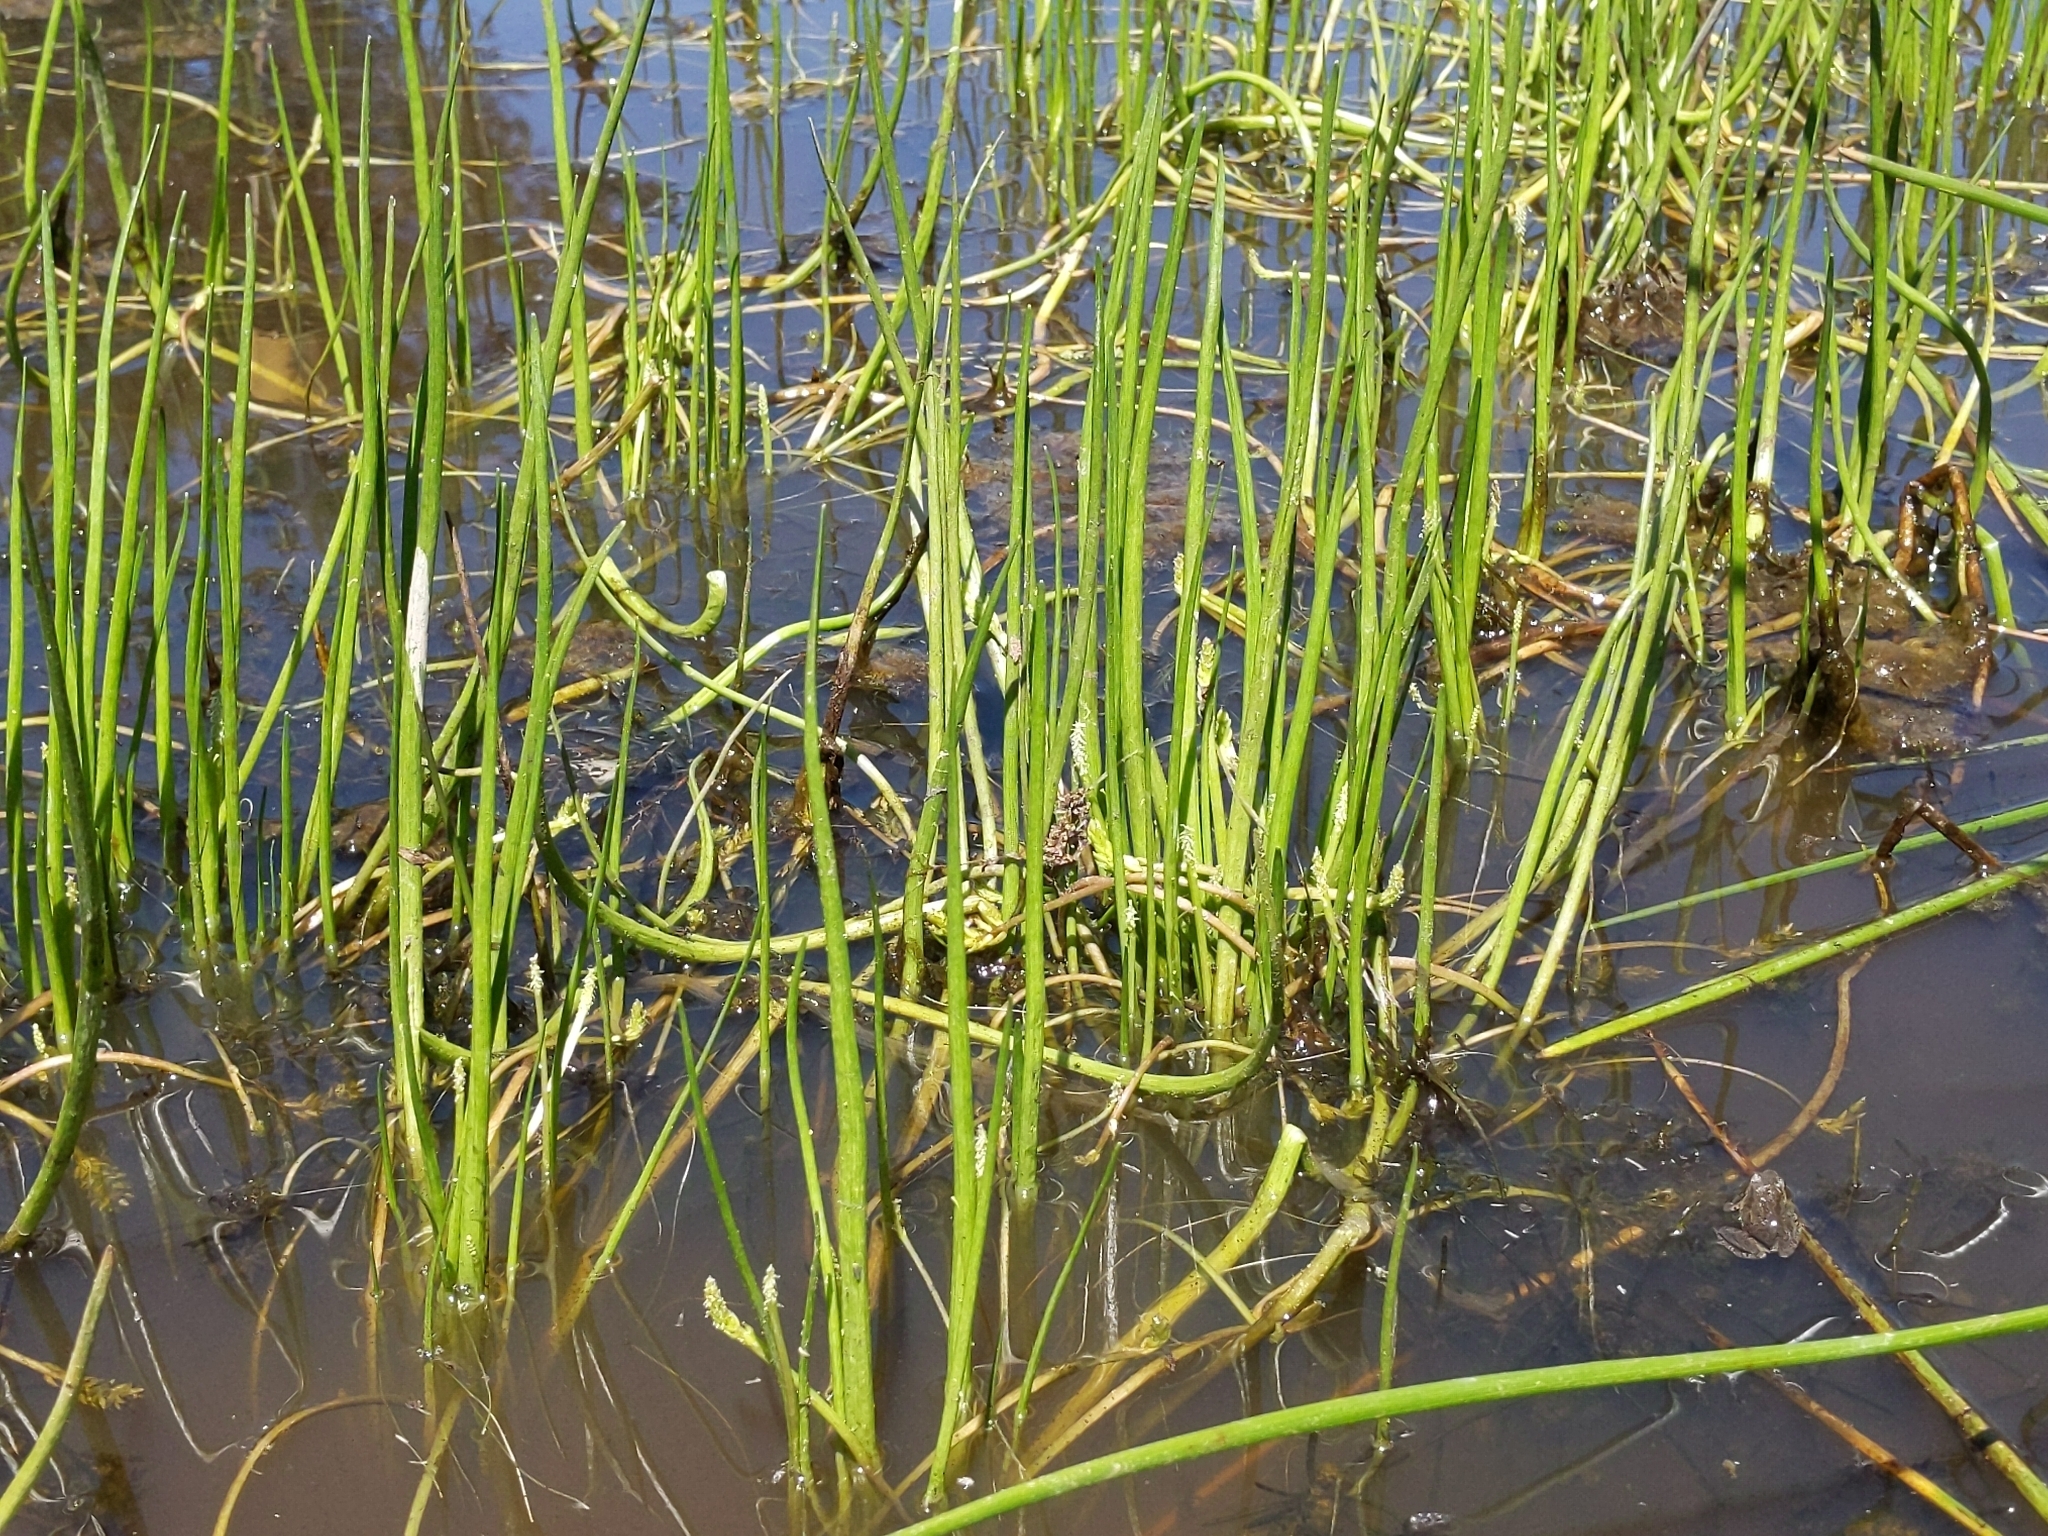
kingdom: Plantae
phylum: Tracheophyta
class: Liliopsida
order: Alismatales
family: Juncaginaceae
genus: Triglochin
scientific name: Triglochin scilloides
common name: Awl-leaved lilaea
